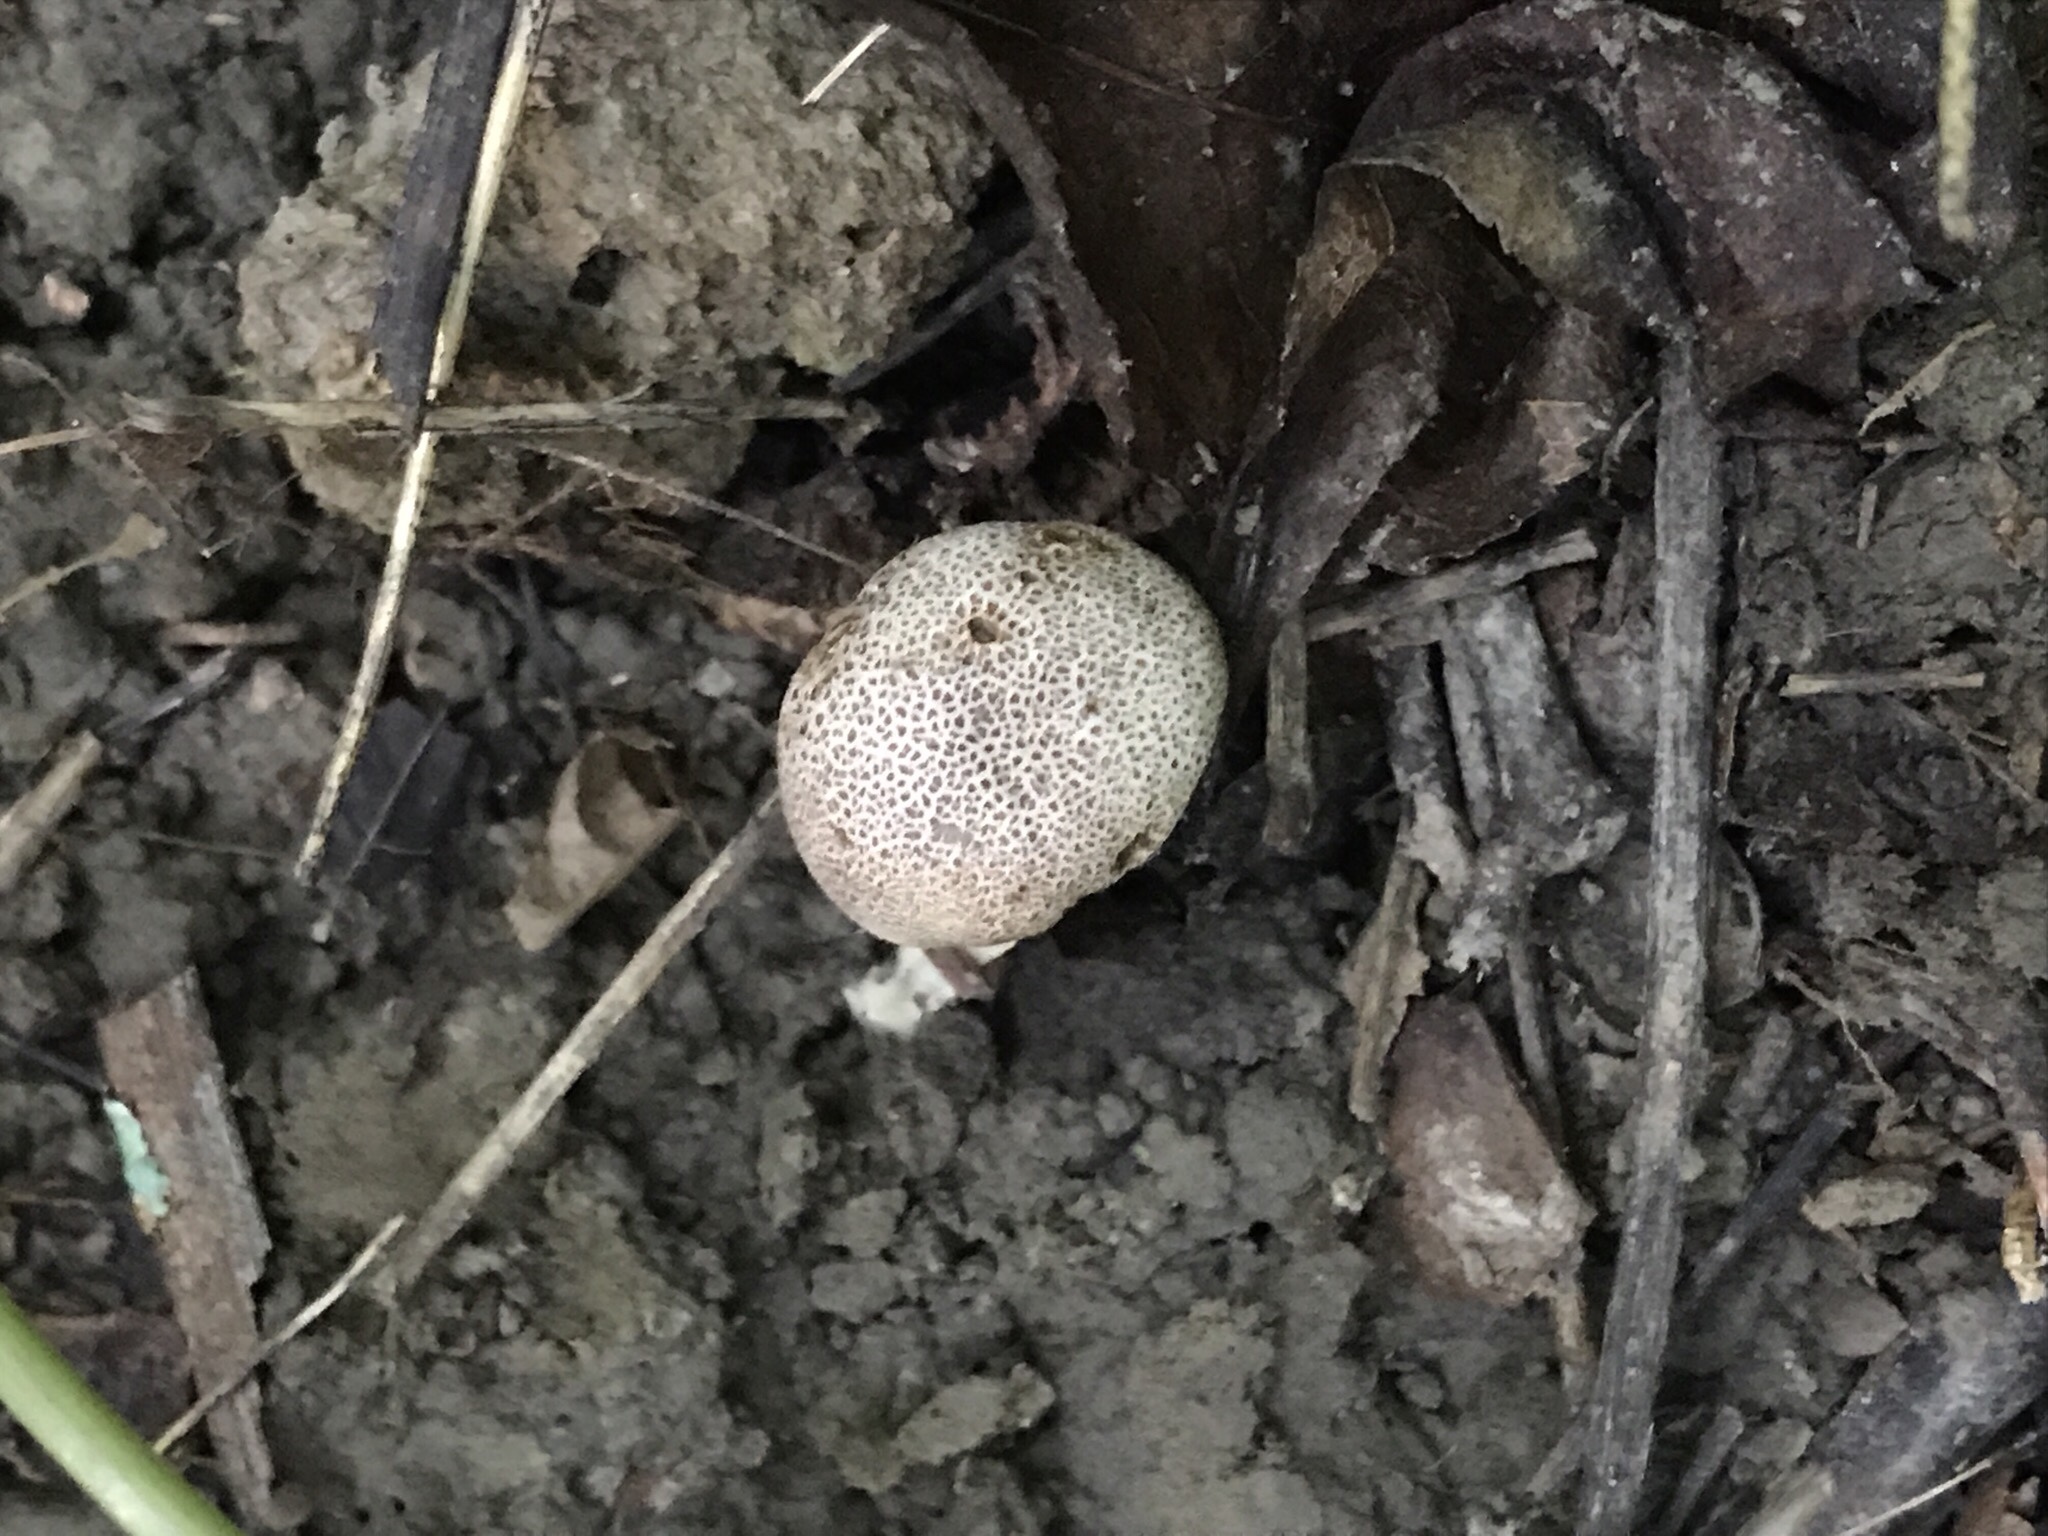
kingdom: Fungi
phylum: Basidiomycota
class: Agaricomycetes
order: Boletales
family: Sclerodermataceae
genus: Scleroderma
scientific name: Scleroderma areolatum
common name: Leopard earthball
